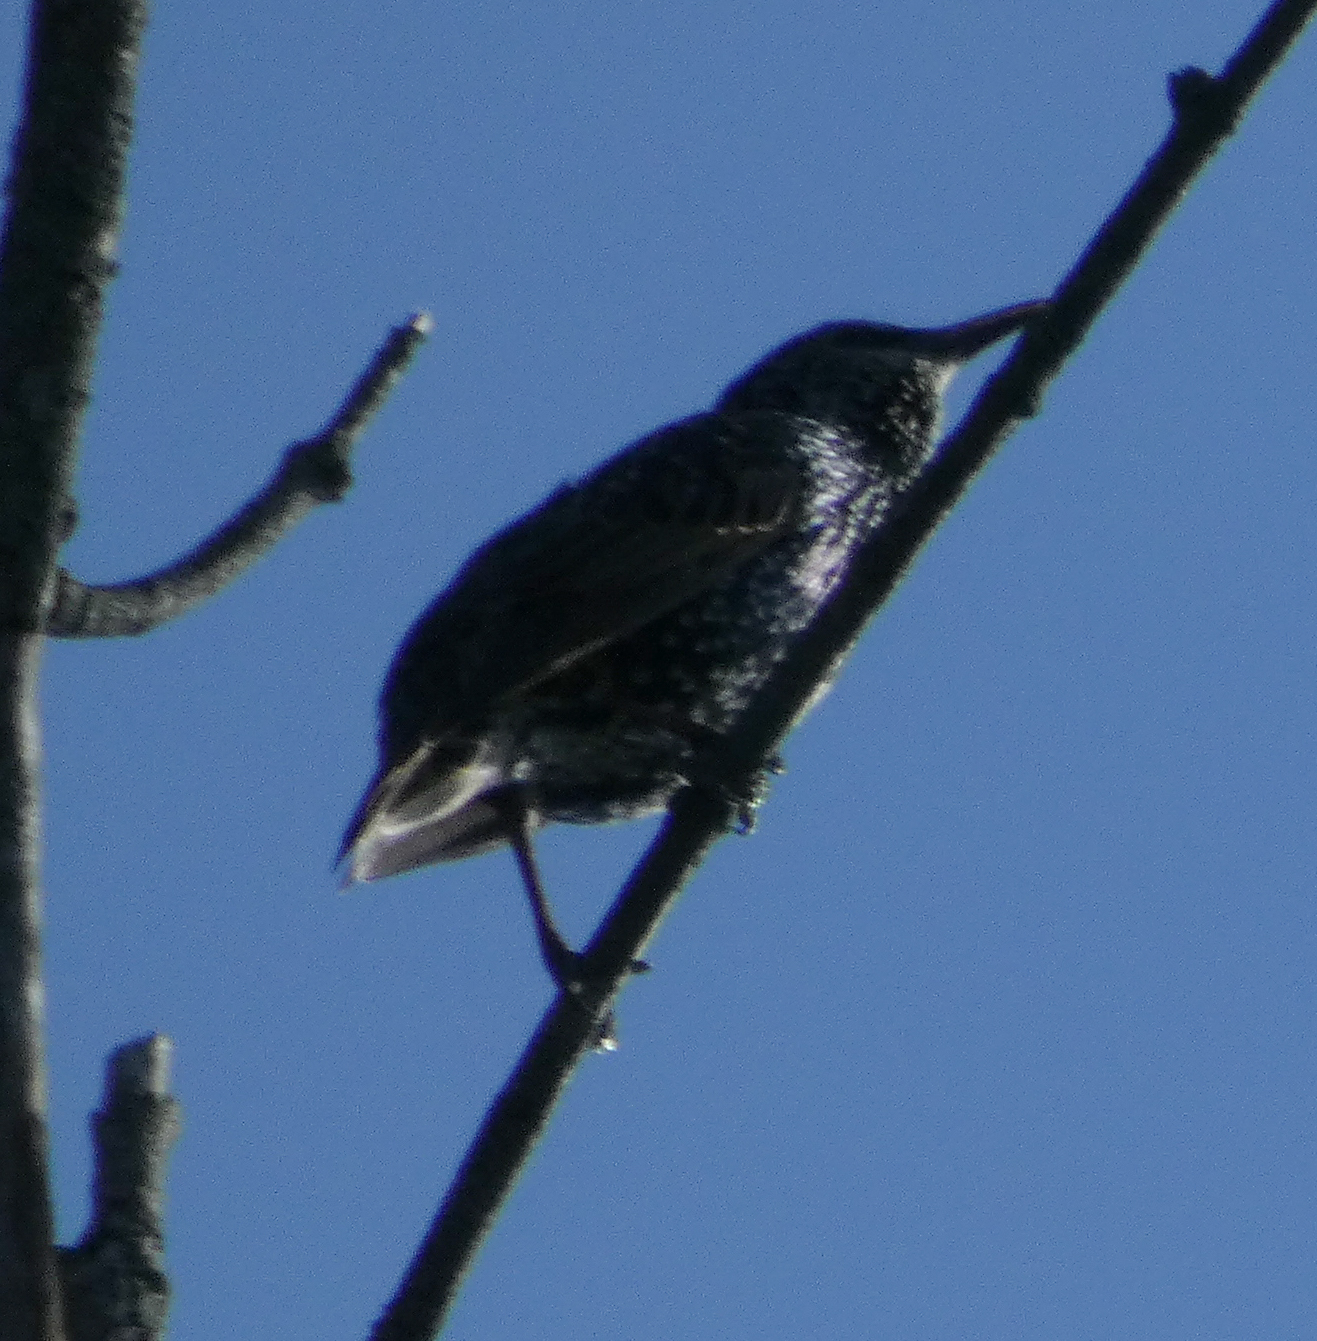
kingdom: Animalia
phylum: Chordata
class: Aves
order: Passeriformes
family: Sturnidae
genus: Sturnus
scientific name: Sturnus vulgaris
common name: Common starling
